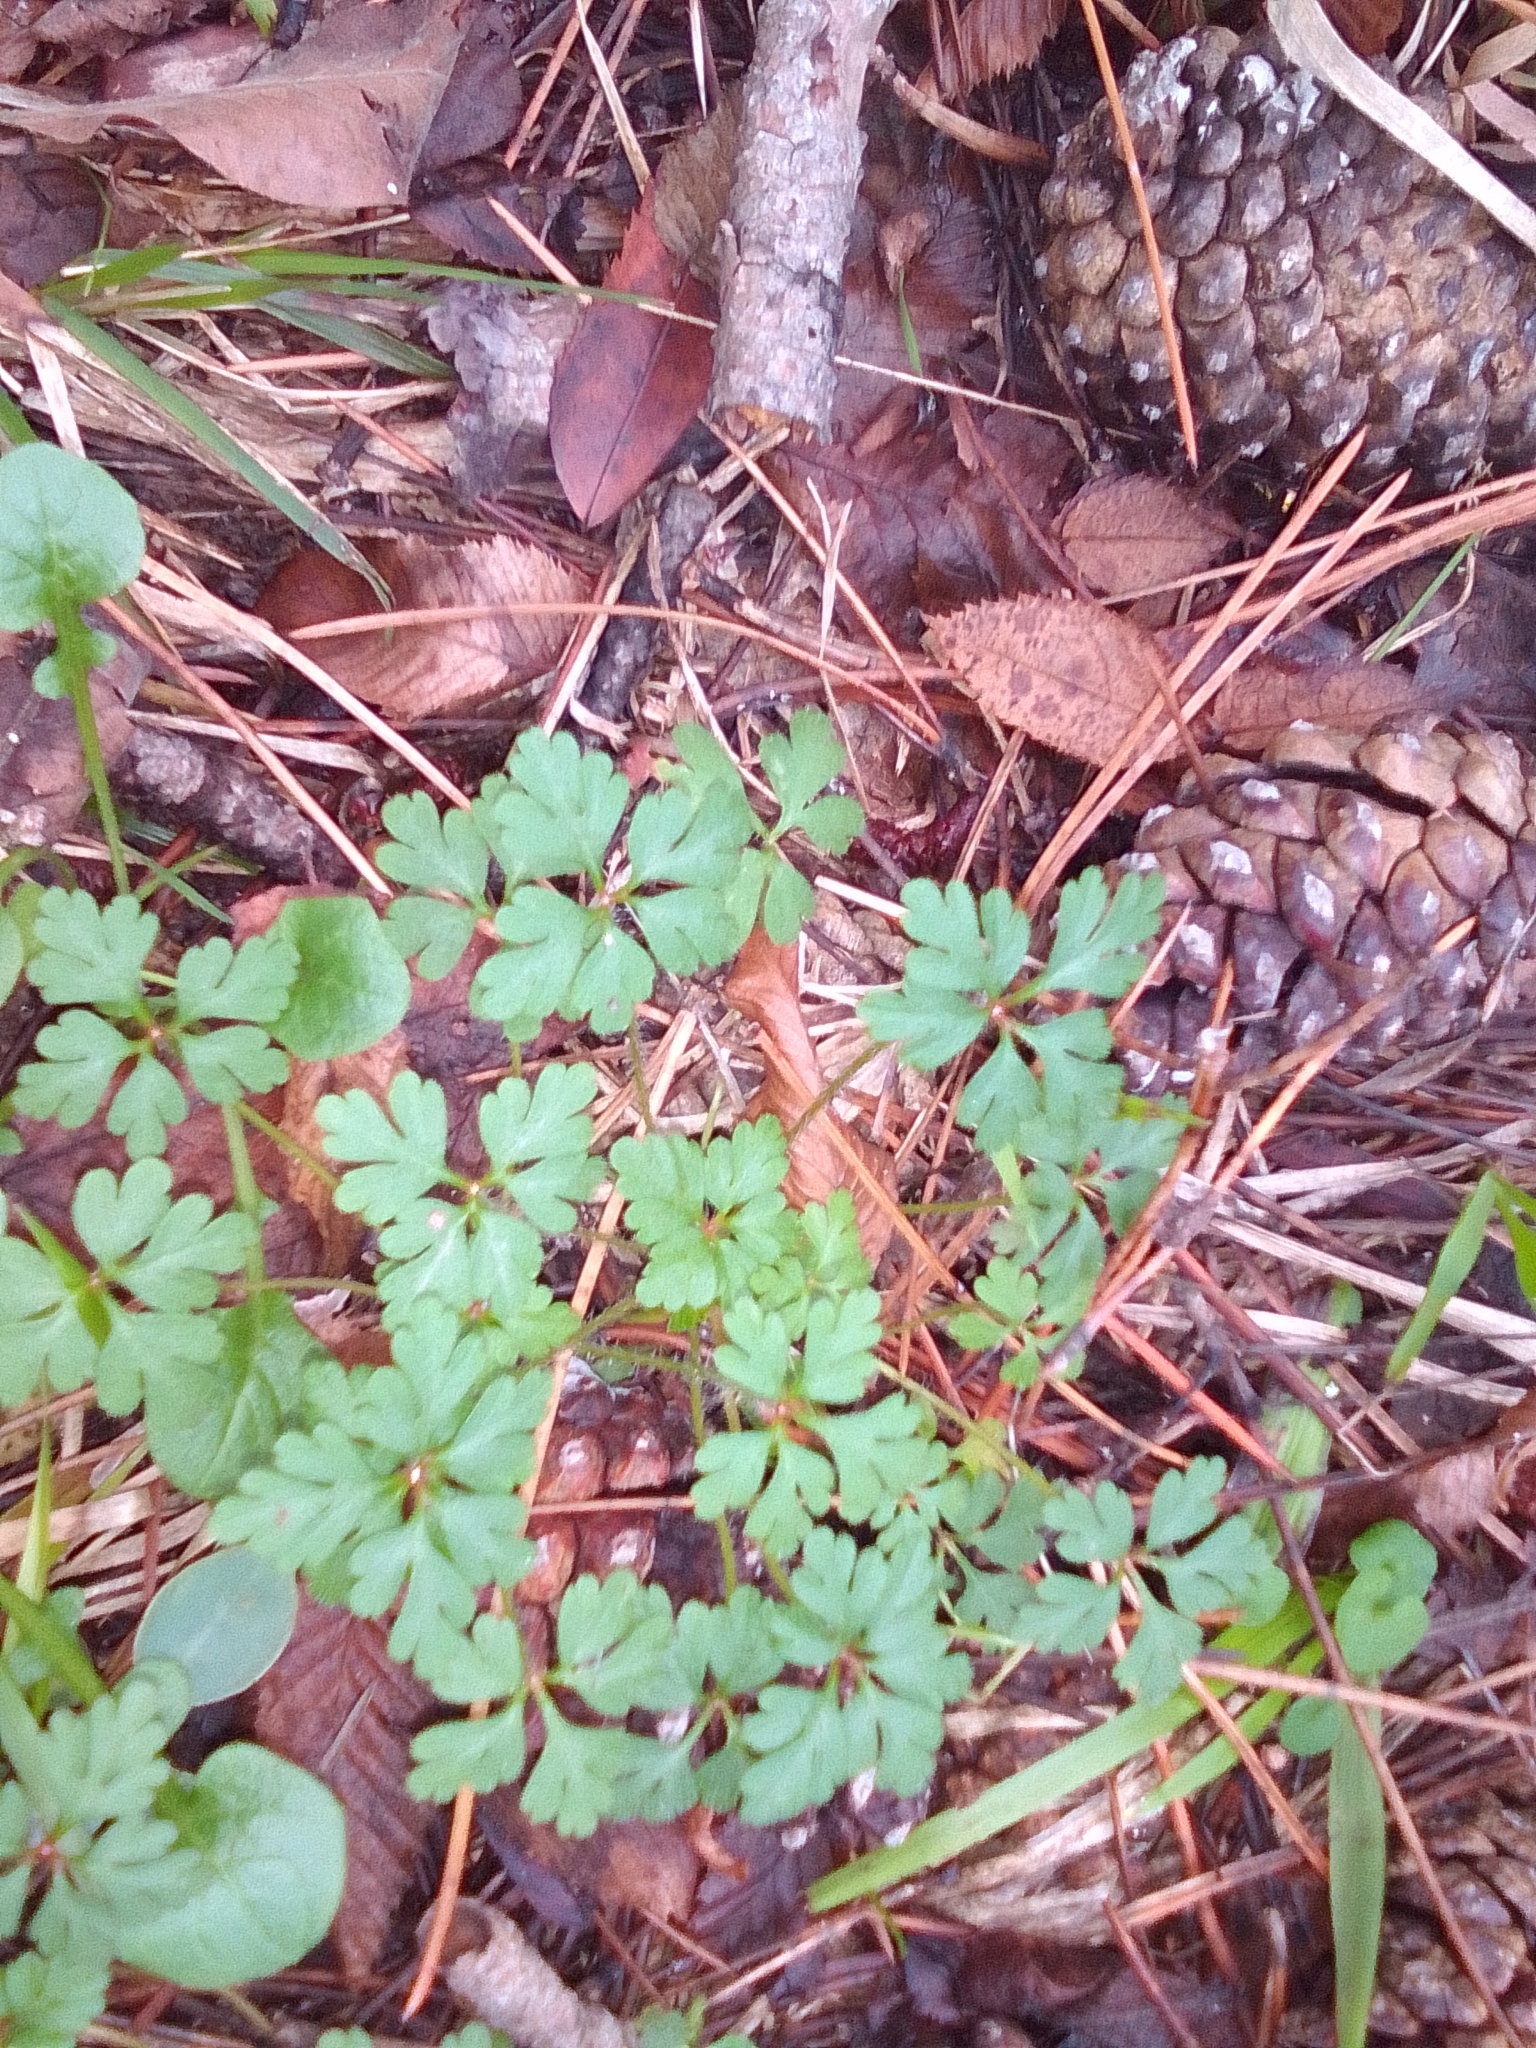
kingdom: Plantae
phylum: Tracheophyta
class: Magnoliopsida
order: Geraniales
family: Geraniaceae
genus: Geranium
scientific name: Geranium robertianum
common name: Herb-robert
